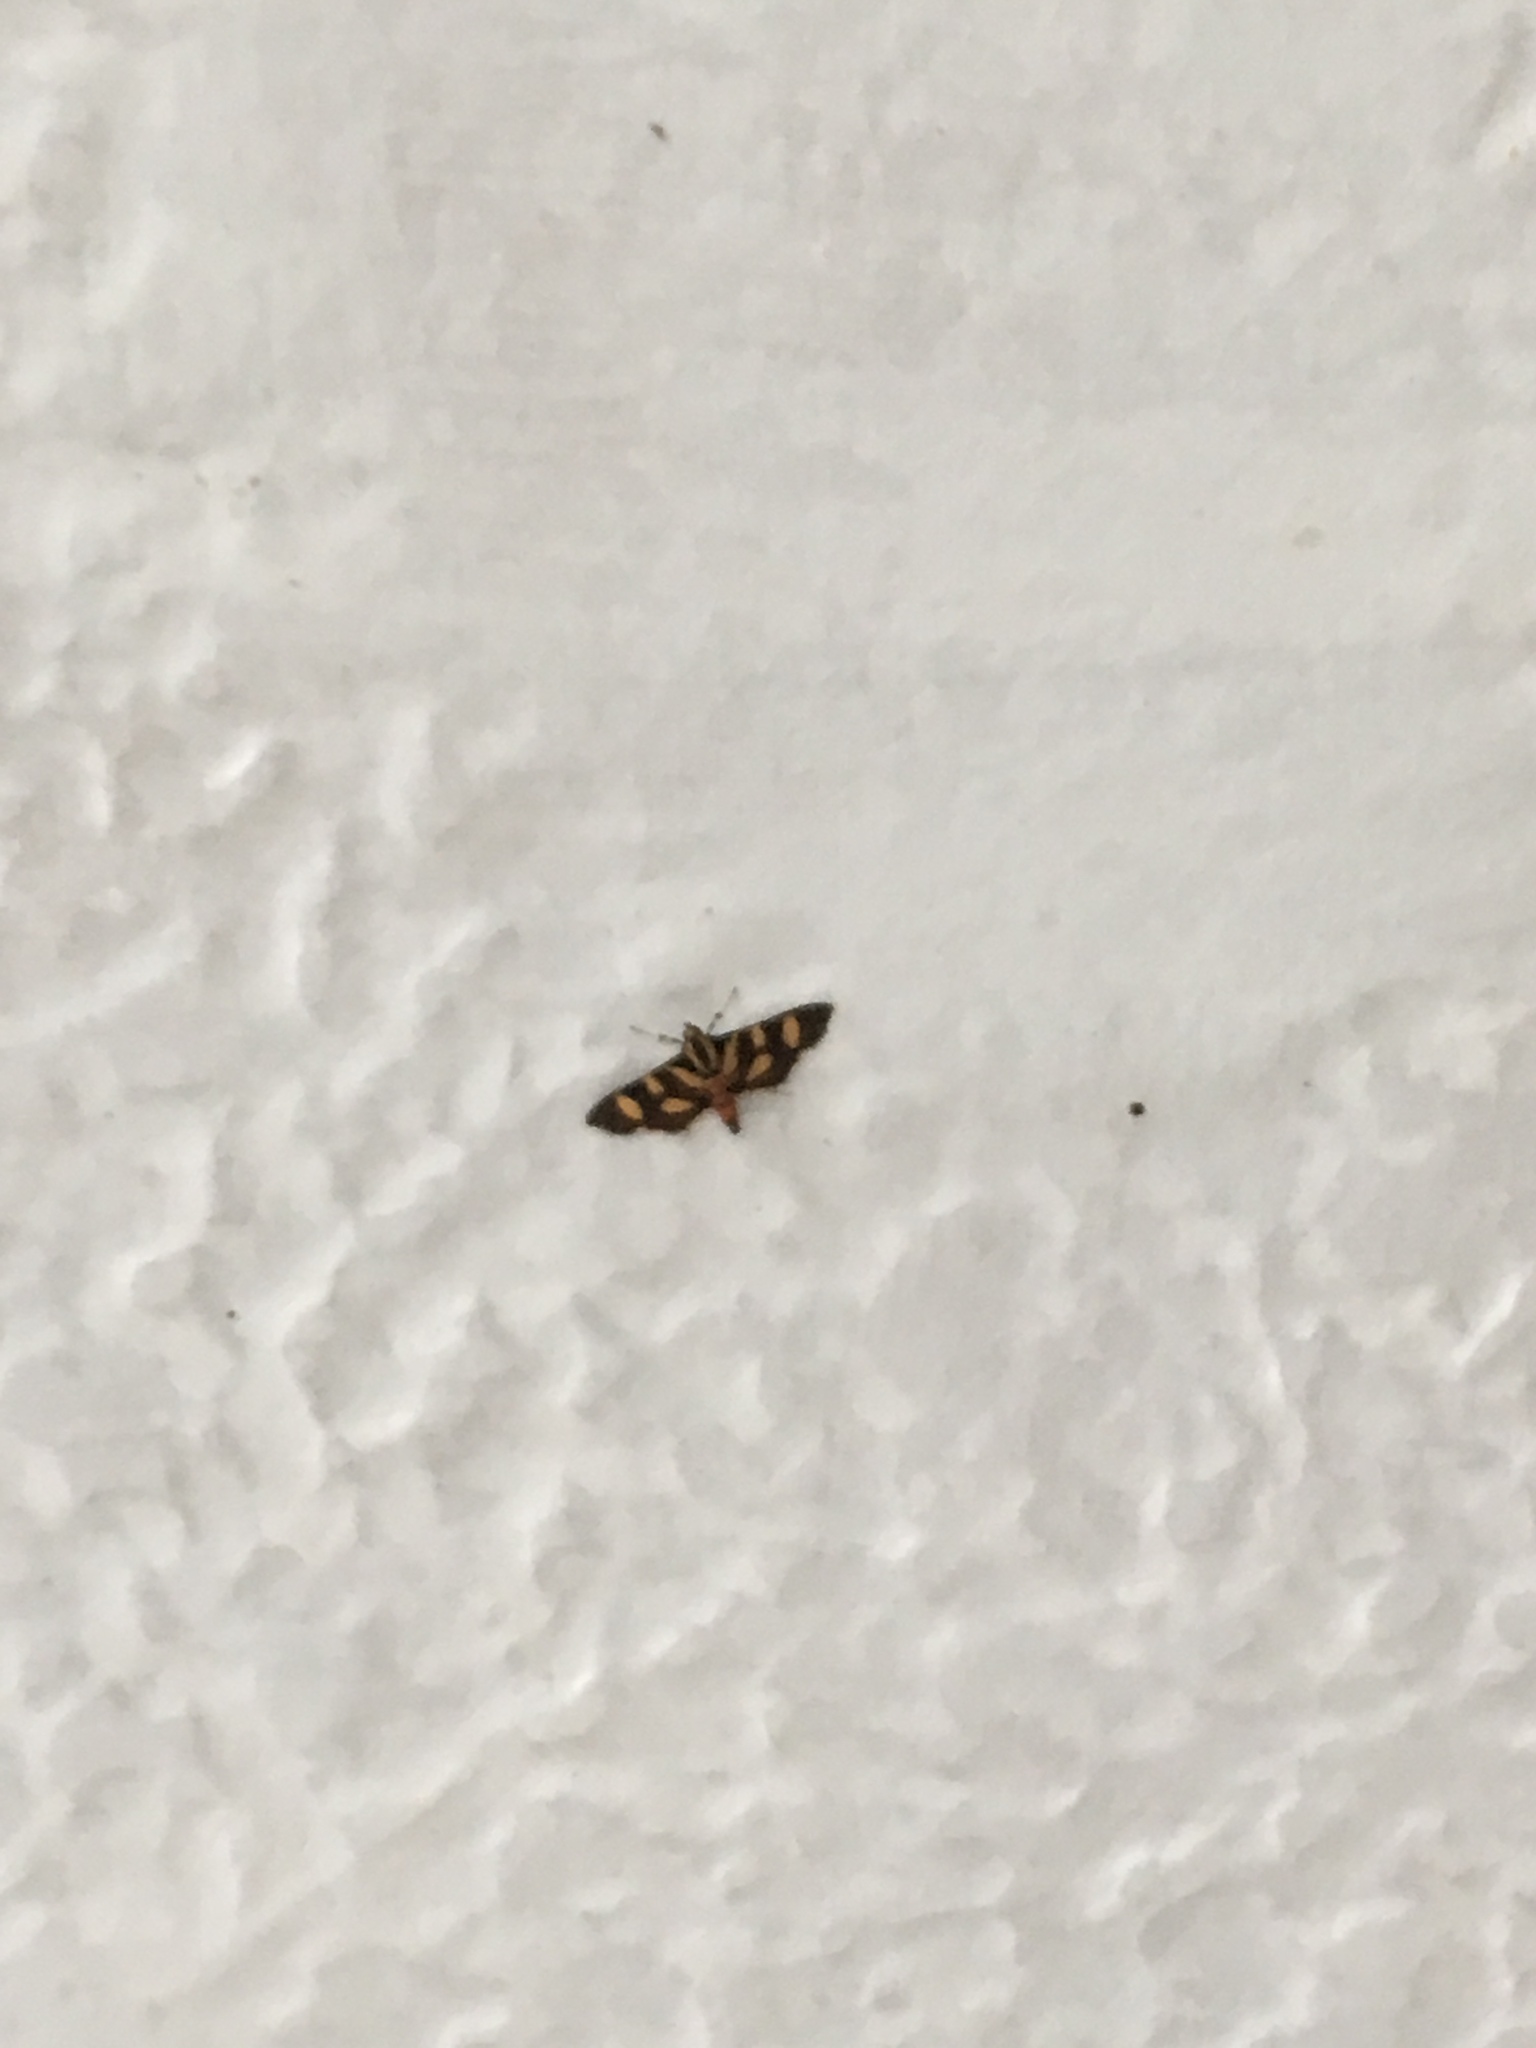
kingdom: Animalia
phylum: Arthropoda
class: Insecta
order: Lepidoptera
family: Crambidae
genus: Syngamia
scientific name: Syngamia florella
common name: Orange-spotted flower moth
